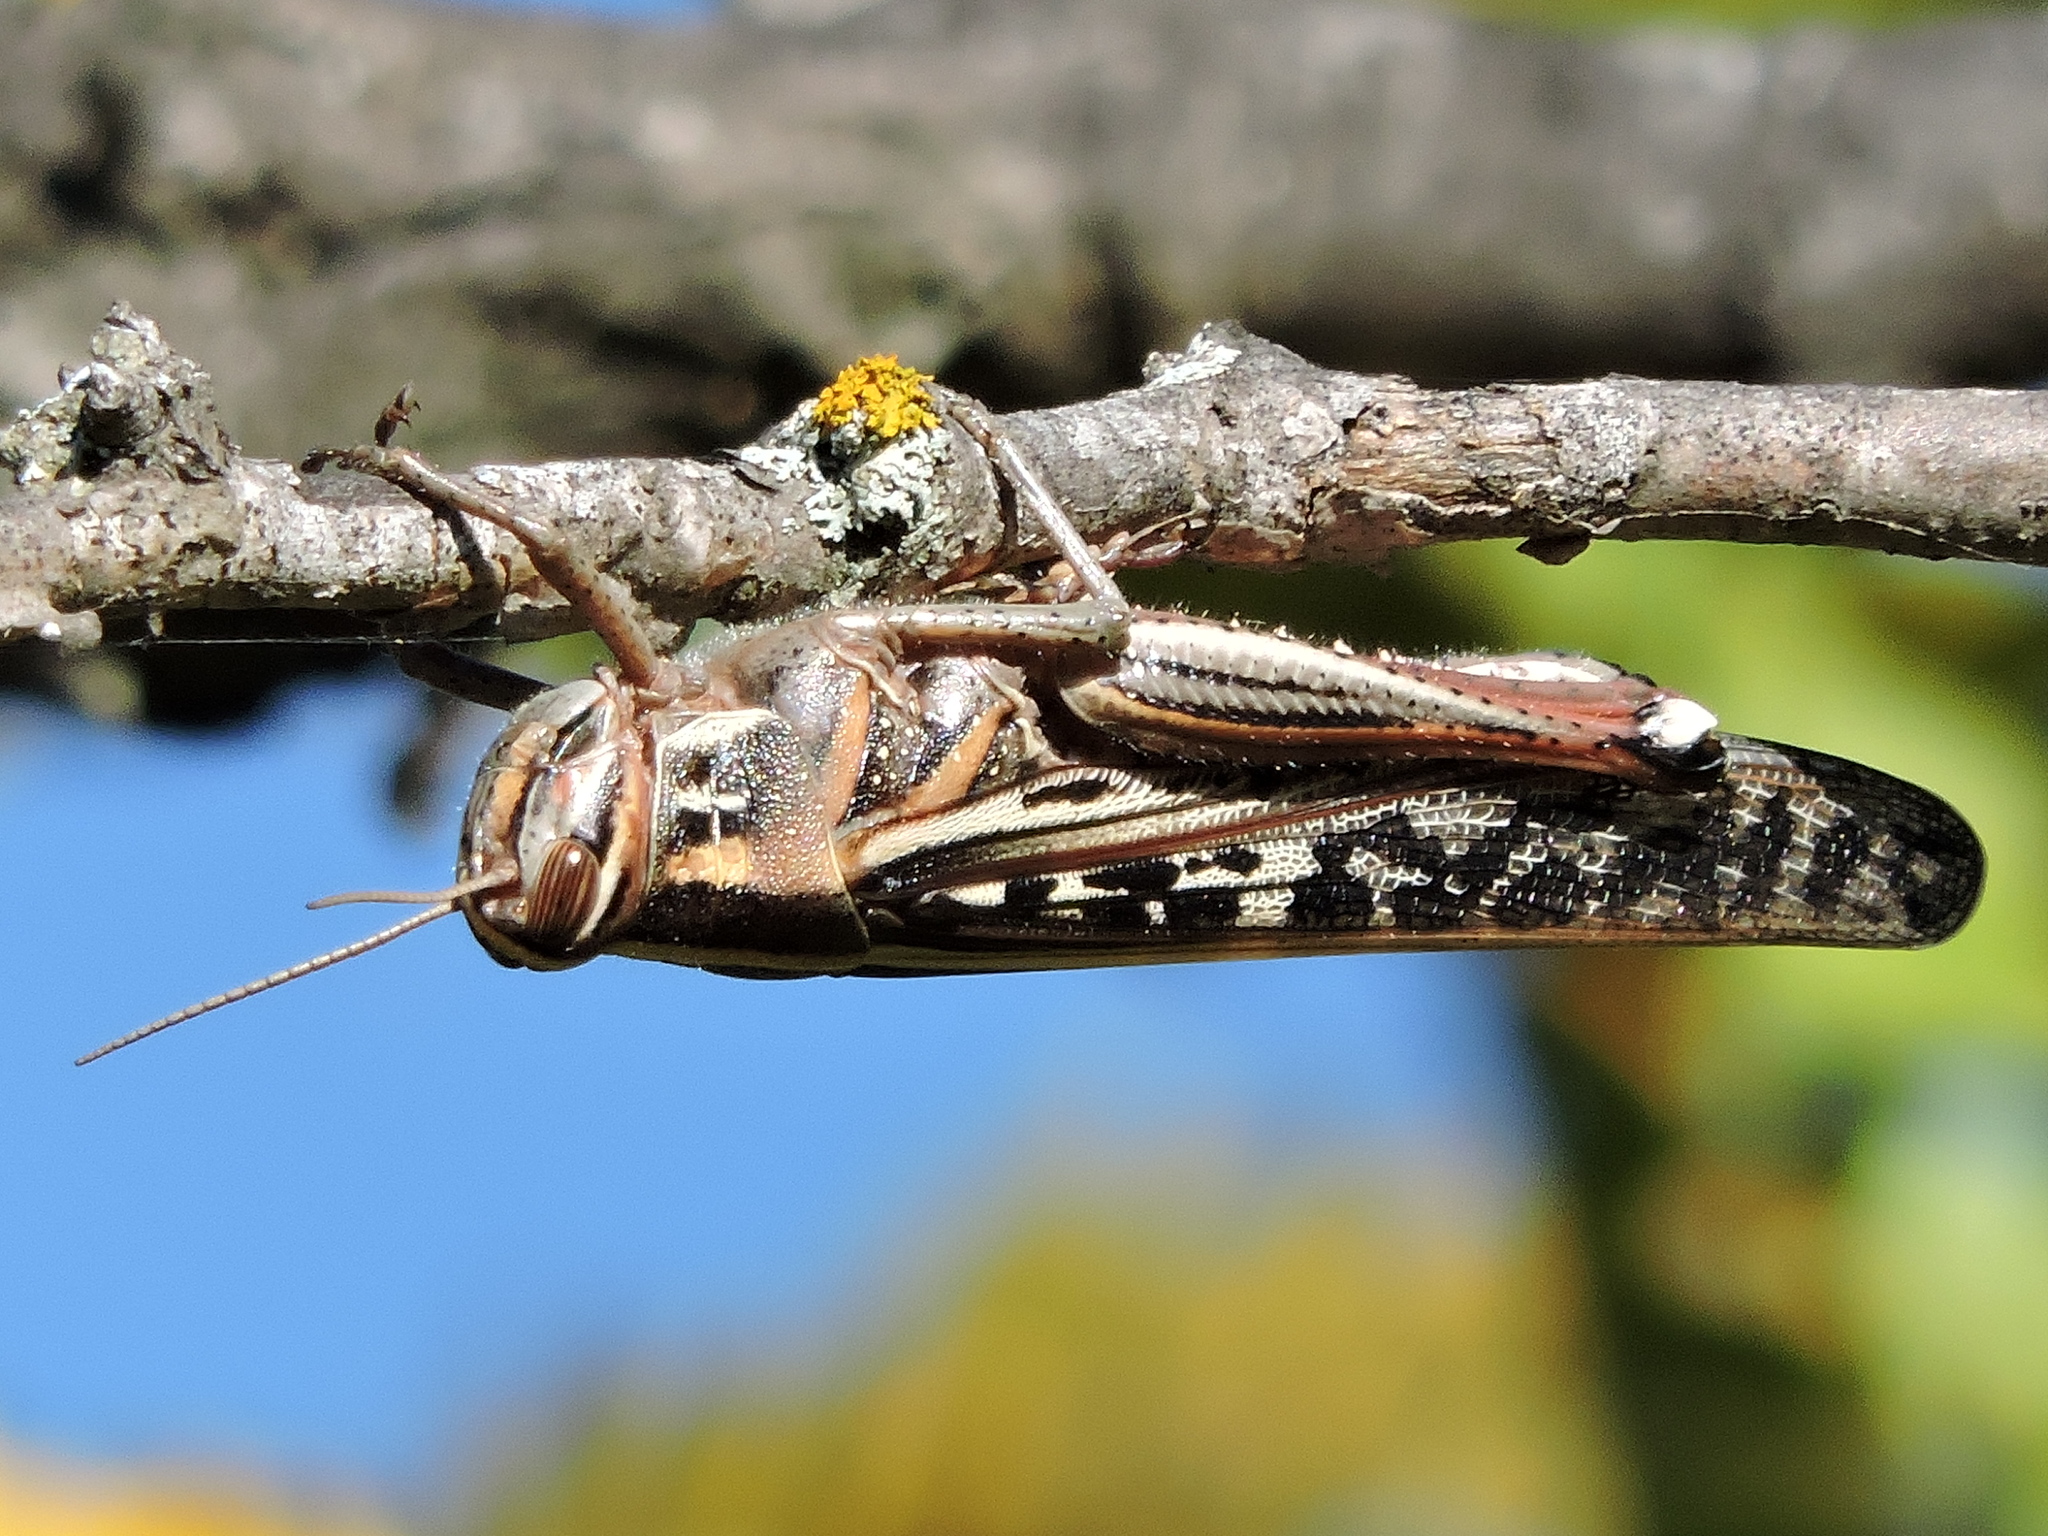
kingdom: Animalia
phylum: Arthropoda
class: Insecta
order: Orthoptera
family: Acrididae
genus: Schistocerca
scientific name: Schistocerca americana
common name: American bird locust
